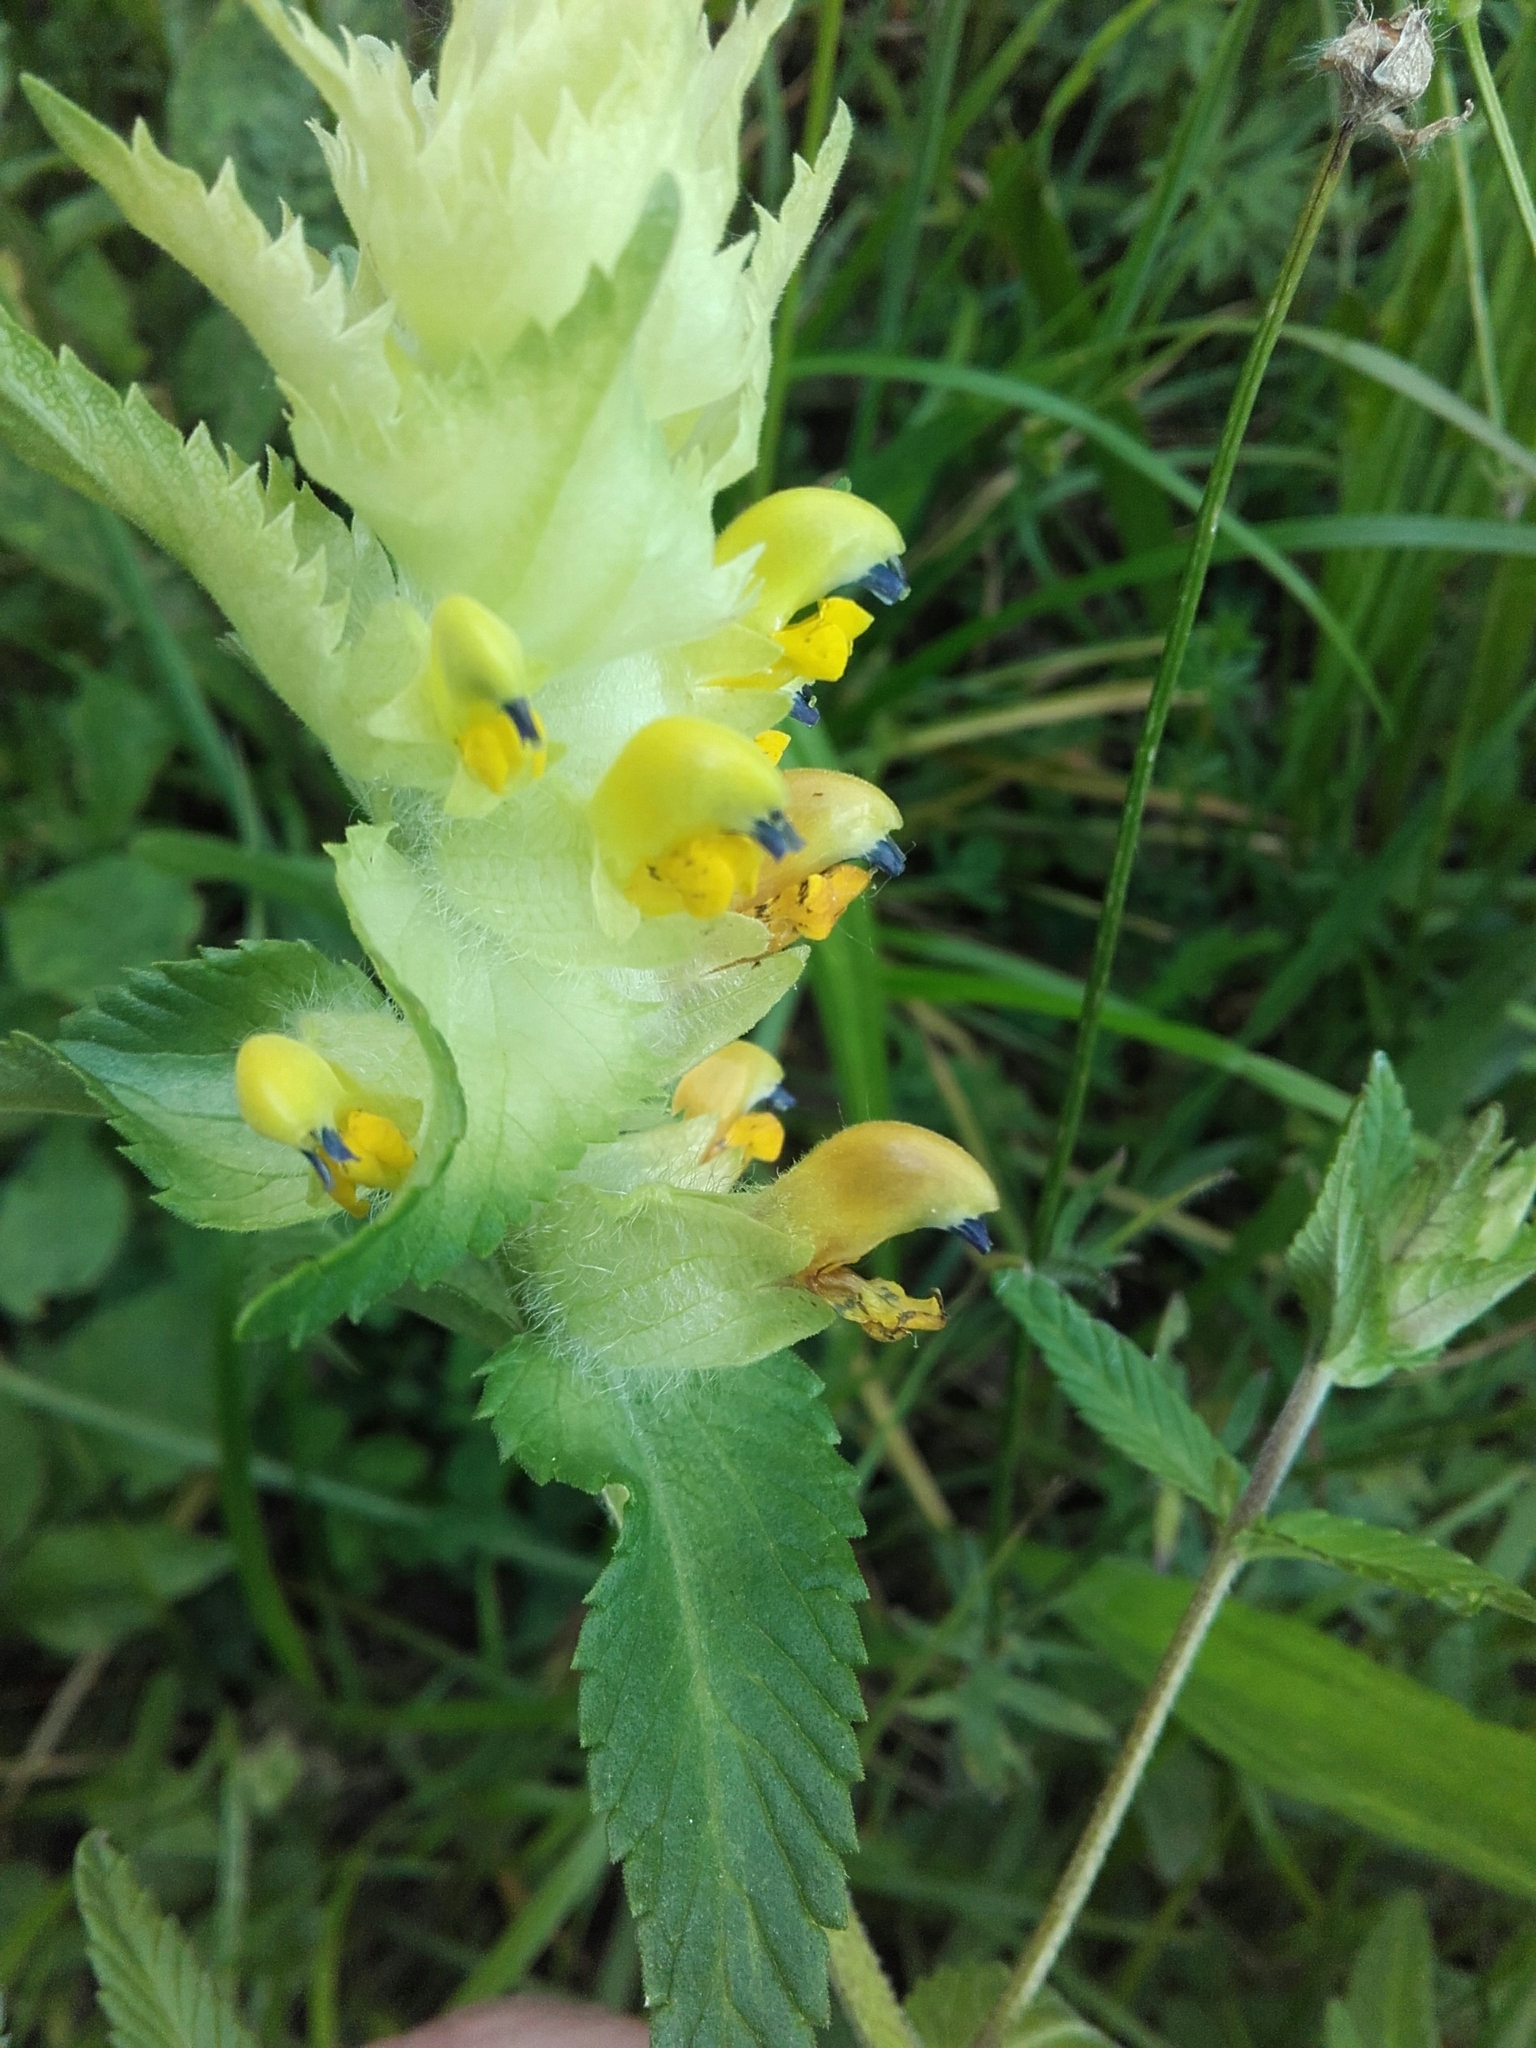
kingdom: Plantae
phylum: Tracheophyta
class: Magnoliopsida
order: Lamiales
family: Orobanchaceae
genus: Rhinanthus
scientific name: Rhinanthus alectorolophus
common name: Greater yellow-rattle
